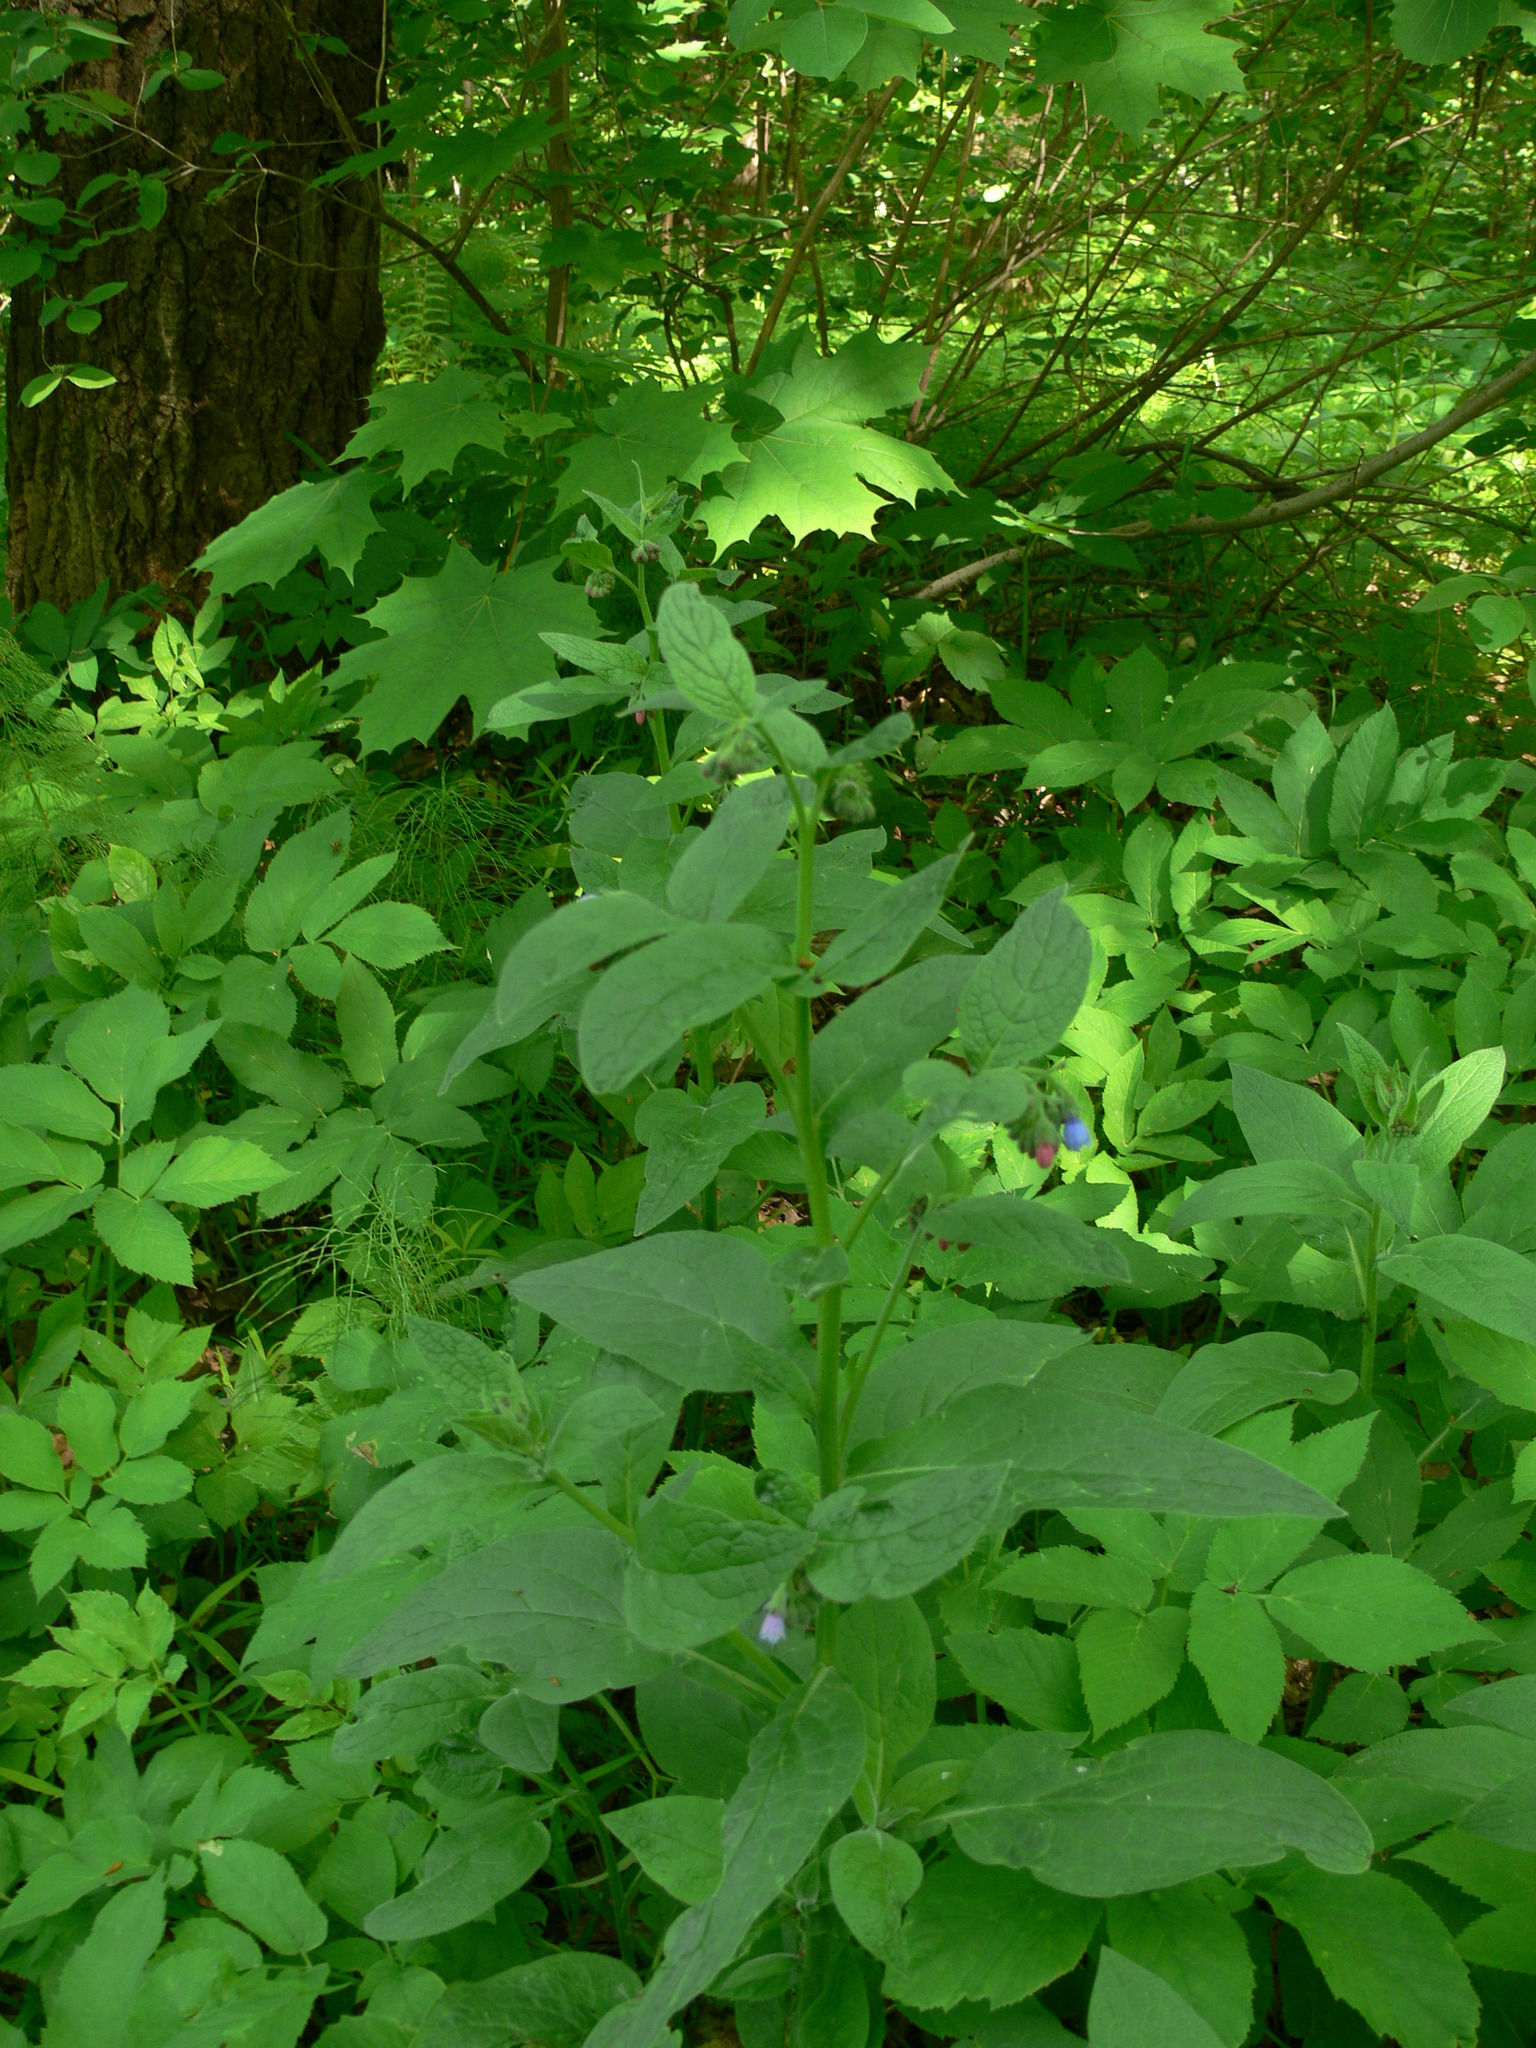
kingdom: Plantae
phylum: Tracheophyta
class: Magnoliopsida
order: Boraginales
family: Boraginaceae
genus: Symphytum
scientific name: Symphytum caucasicum
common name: Caucasian comfrey
